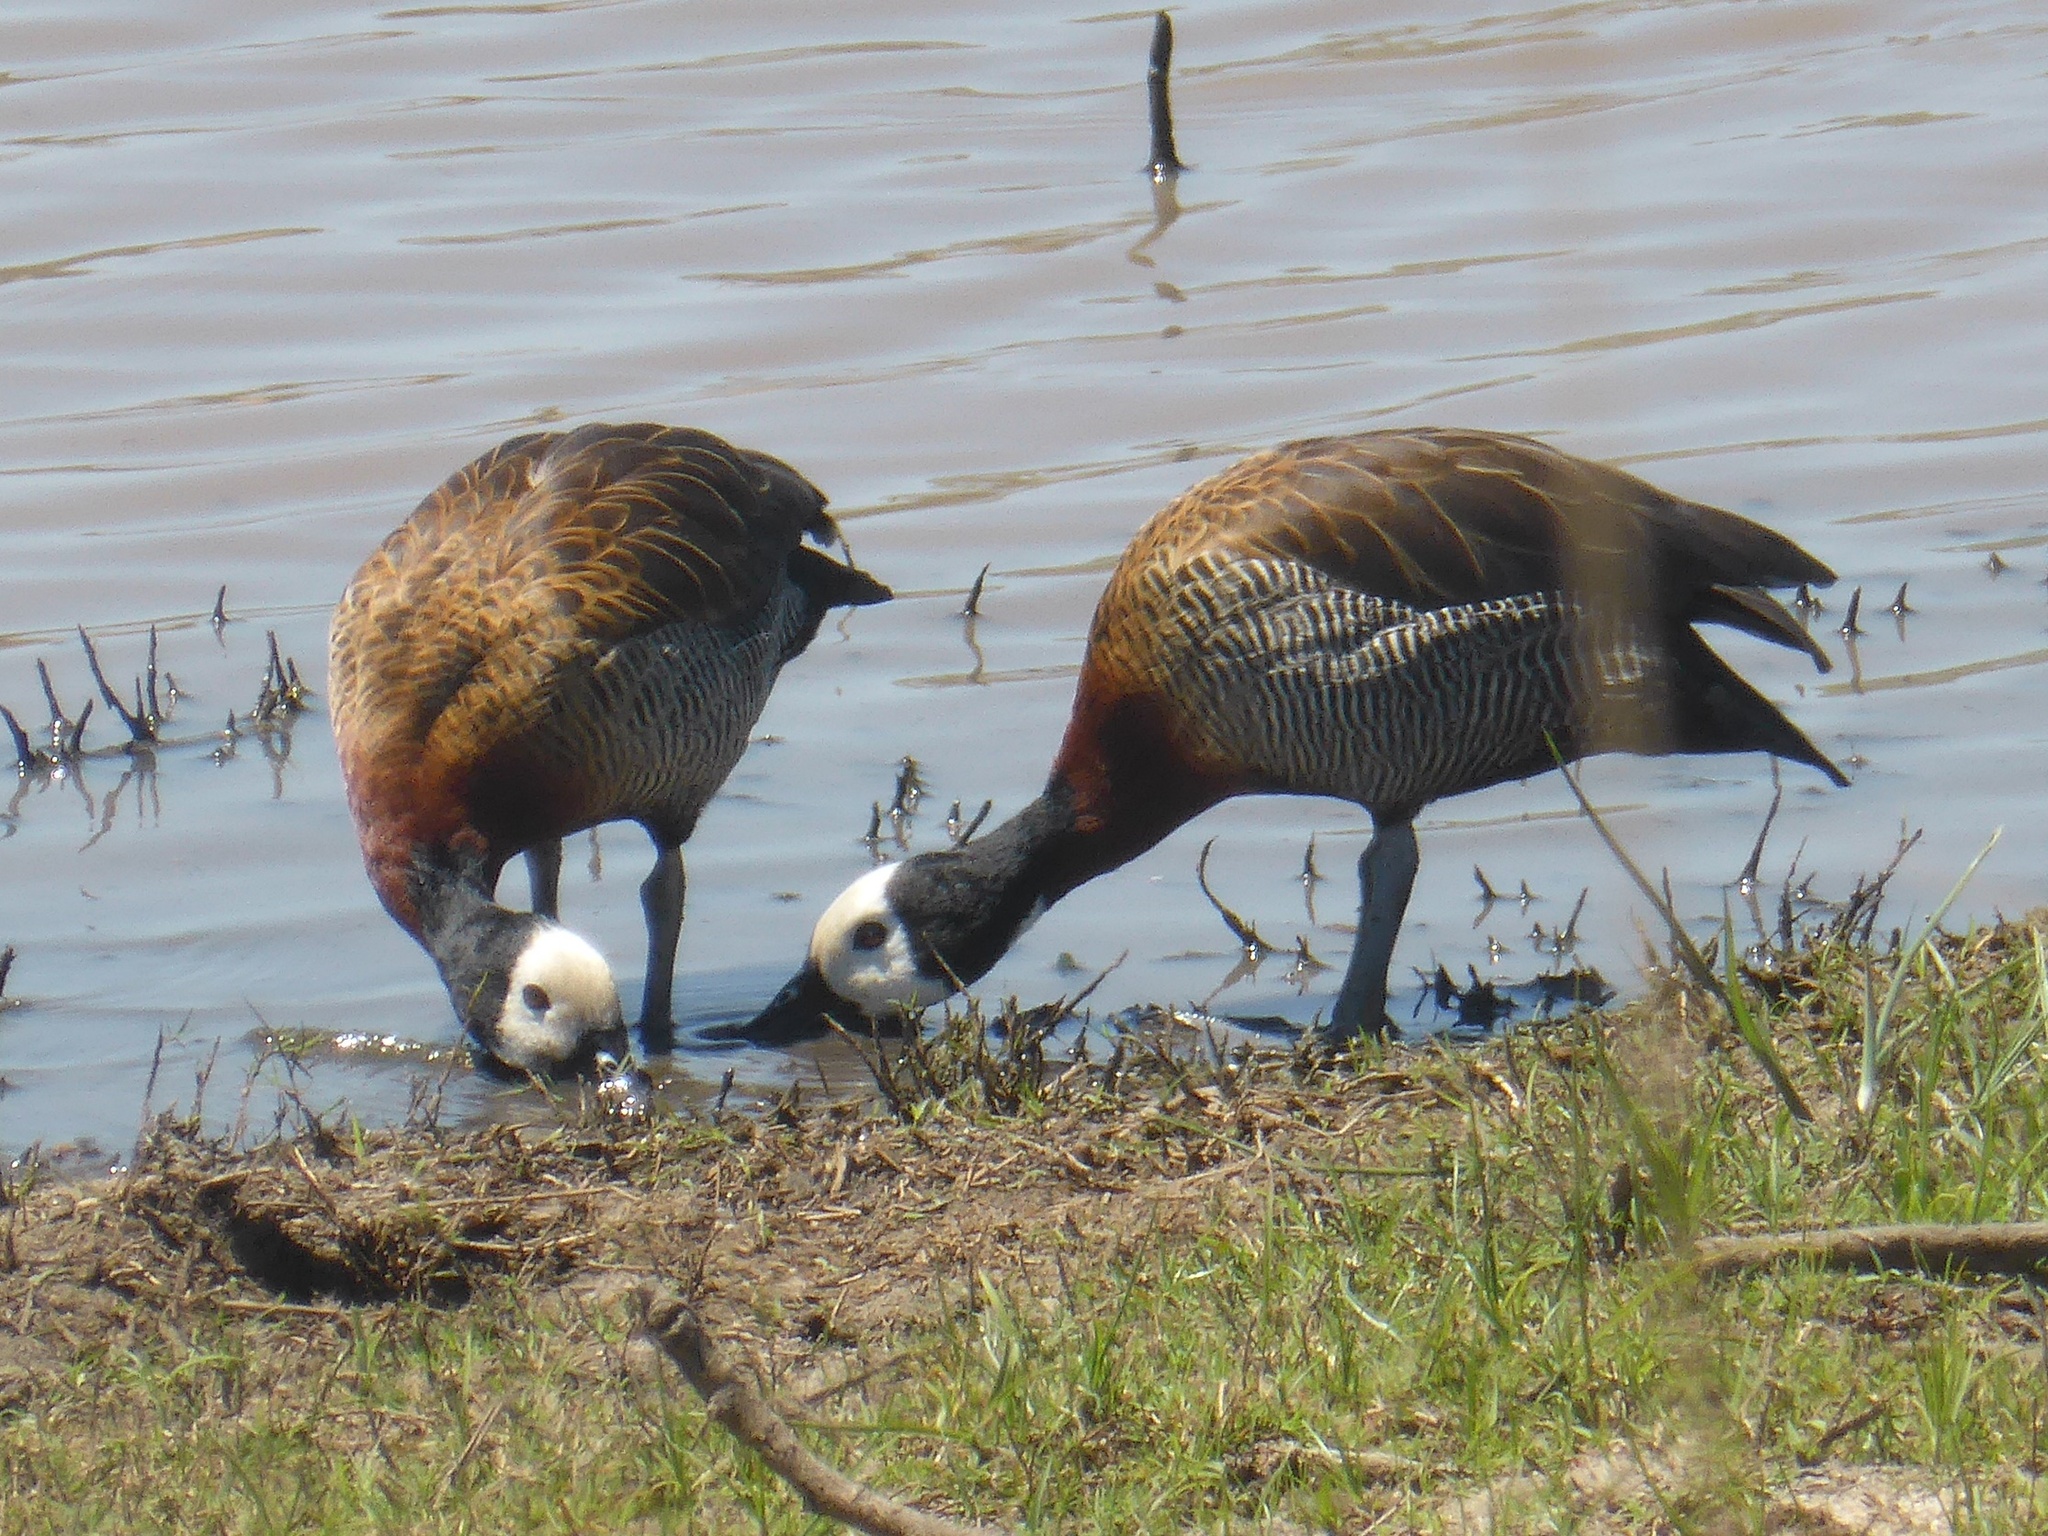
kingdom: Animalia
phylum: Chordata
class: Aves
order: Anseriformes
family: Anatidae
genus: Dendrocygna
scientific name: Dendrocygna viduata
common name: White-faced whistling duck
